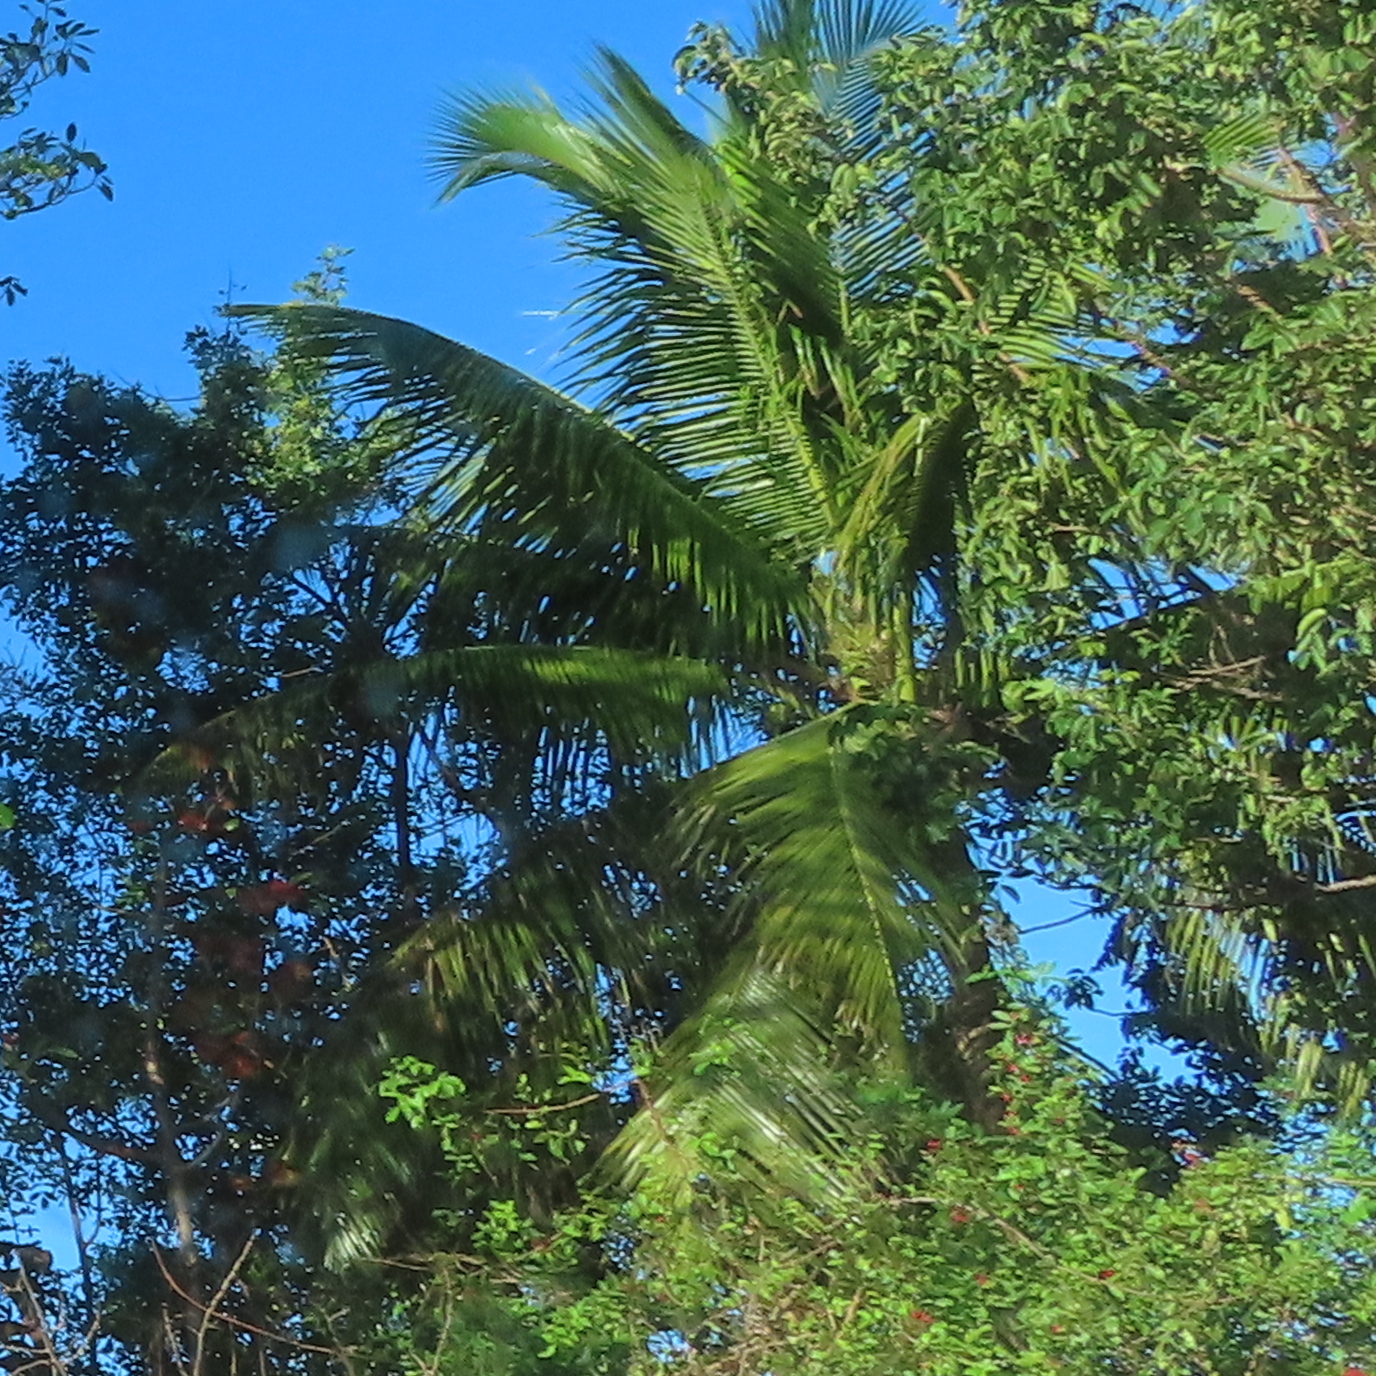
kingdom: Plantae
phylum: Tracheophyta
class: Liliopsida
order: Arecales
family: Arecaceae
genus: Cocos
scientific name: Cocos nucifera
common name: Coconut palm
